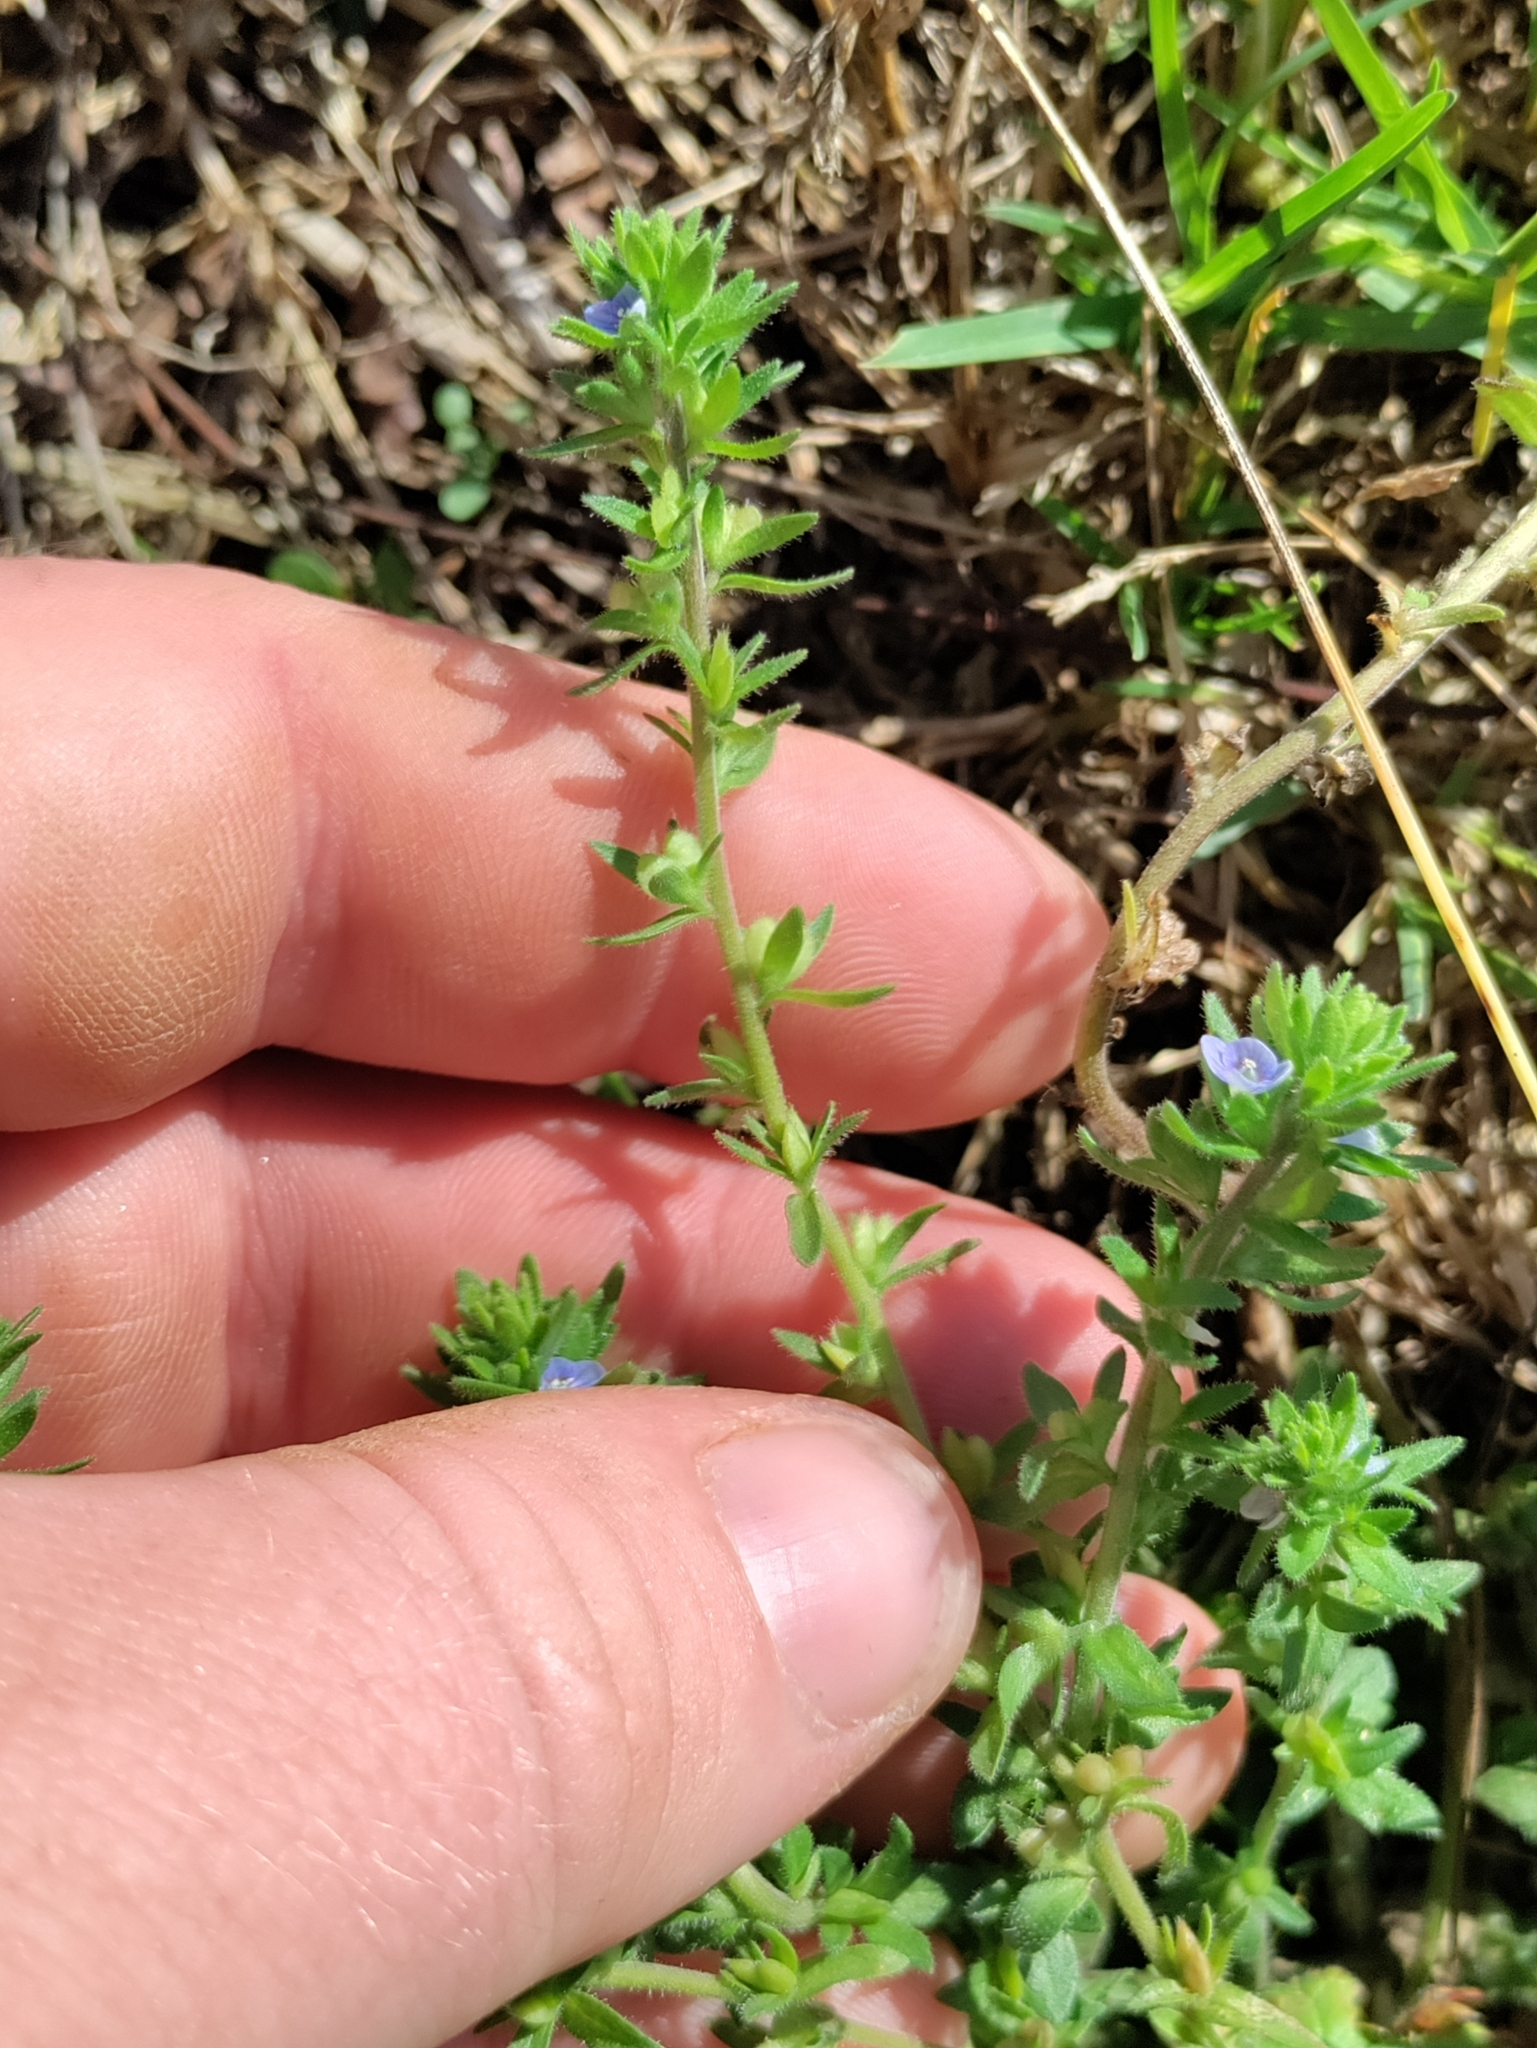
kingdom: Plantae
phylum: Tracheophyta
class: Magnoliopsida
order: Lamiales
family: Plantaginaceae
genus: Veronica
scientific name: Veronica arvensis
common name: Corn speedwell
